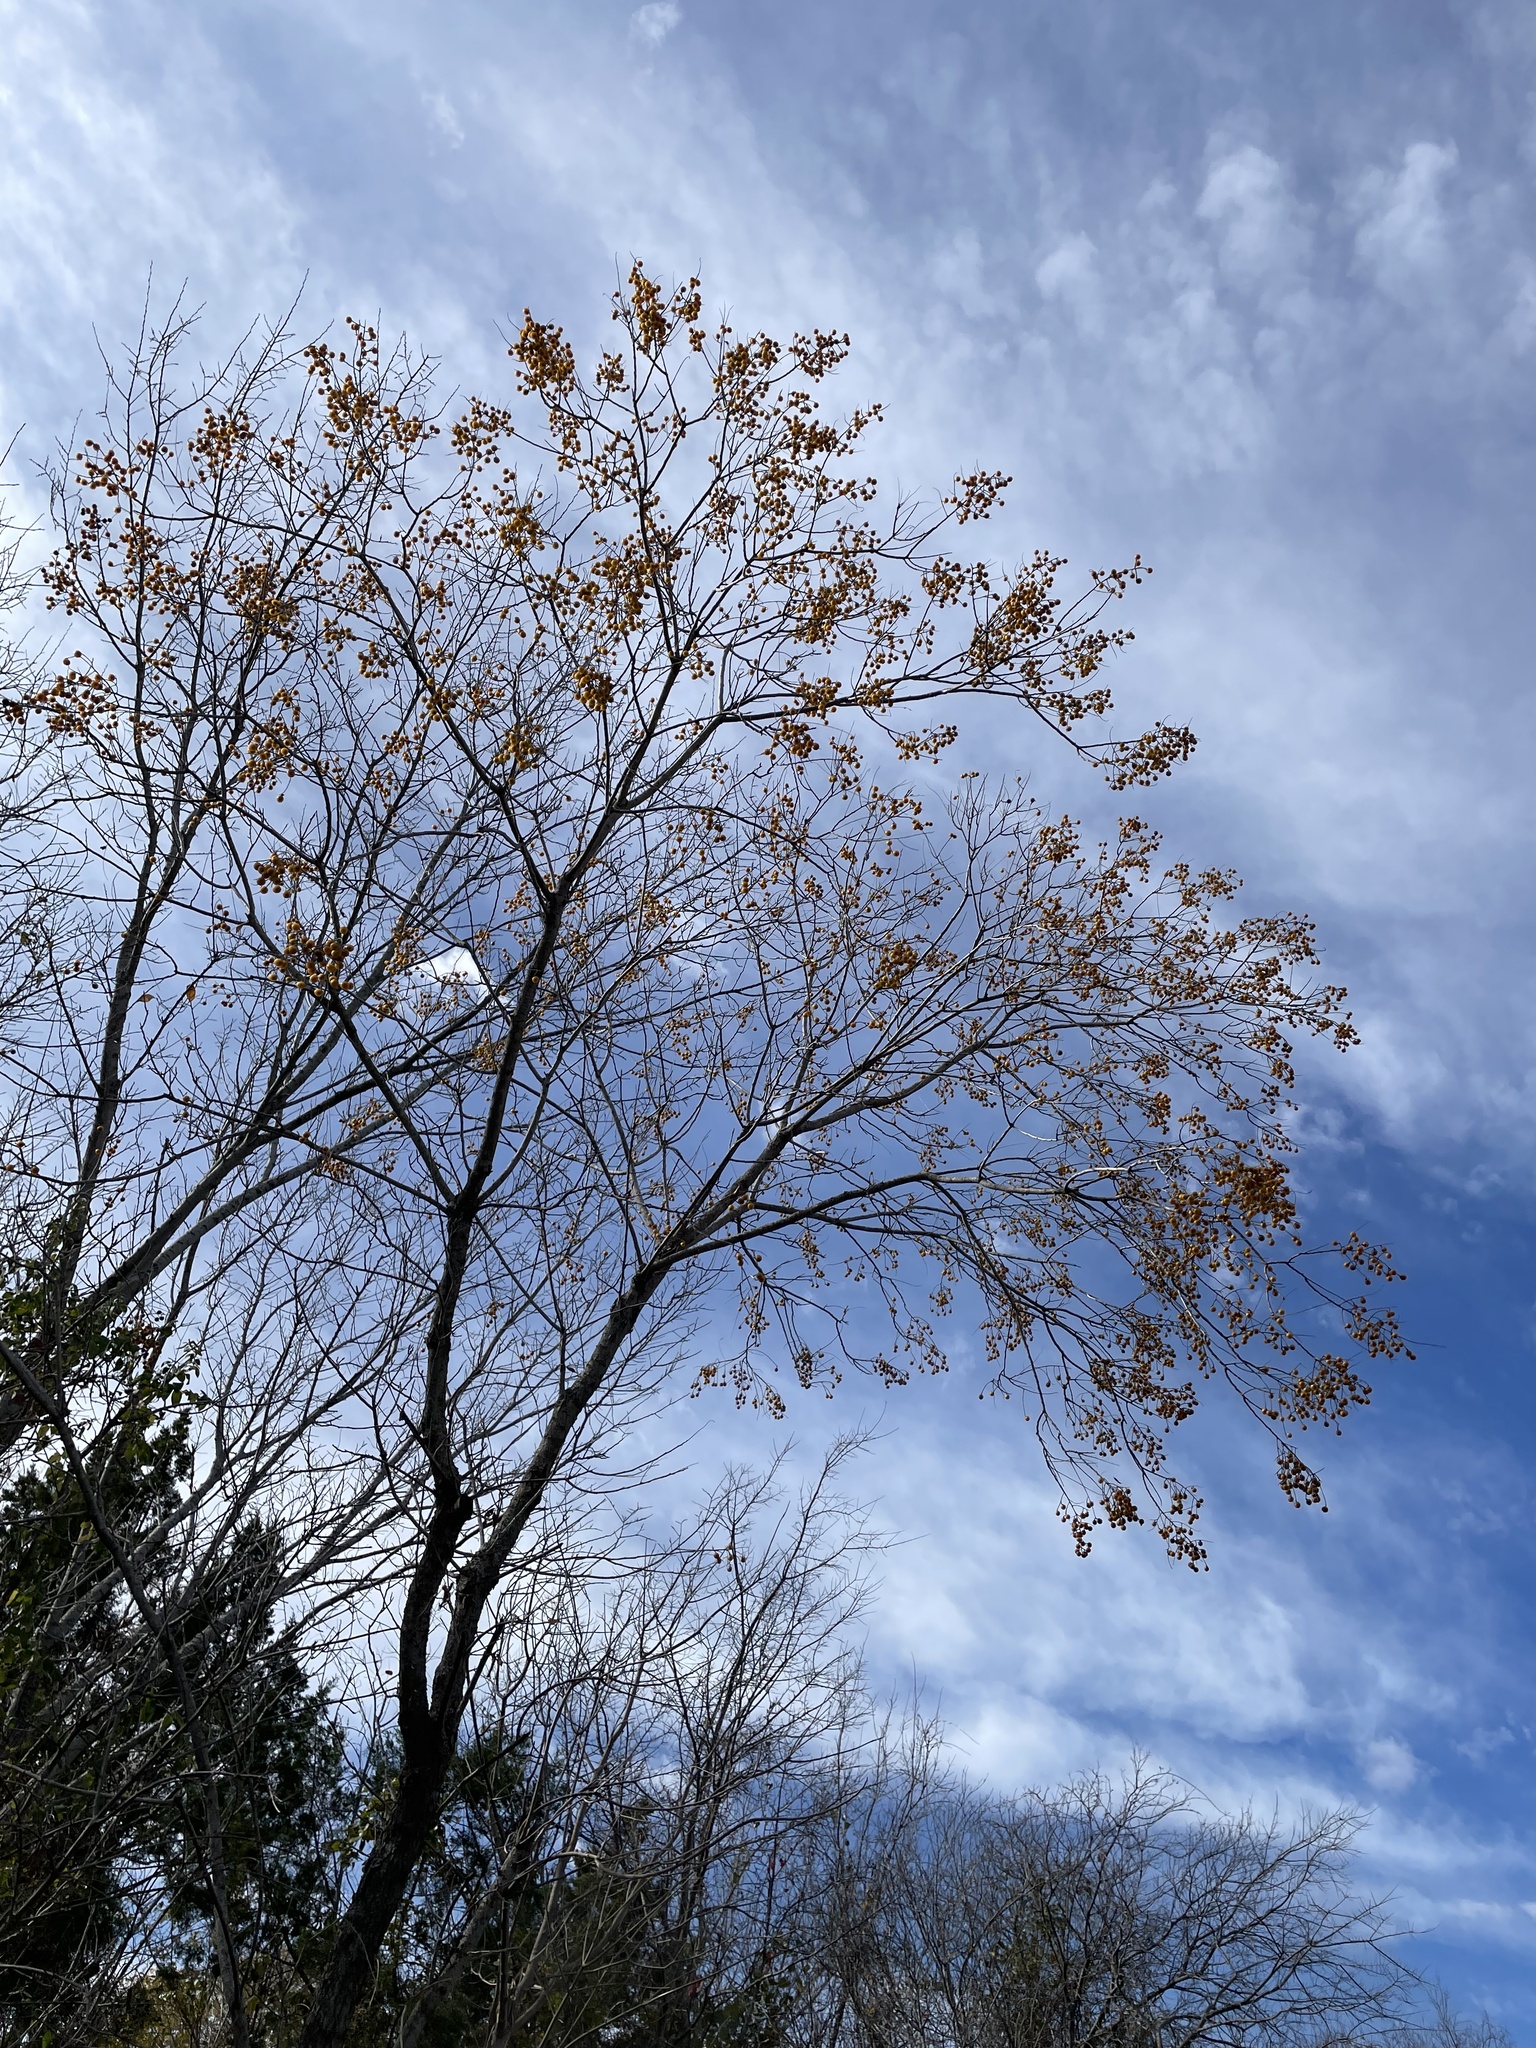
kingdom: Plantae
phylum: Tracheophyta
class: Magnoliopsida
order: Sapindales
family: Sapindaceae
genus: Sapindus
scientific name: Sapindus drummondii
